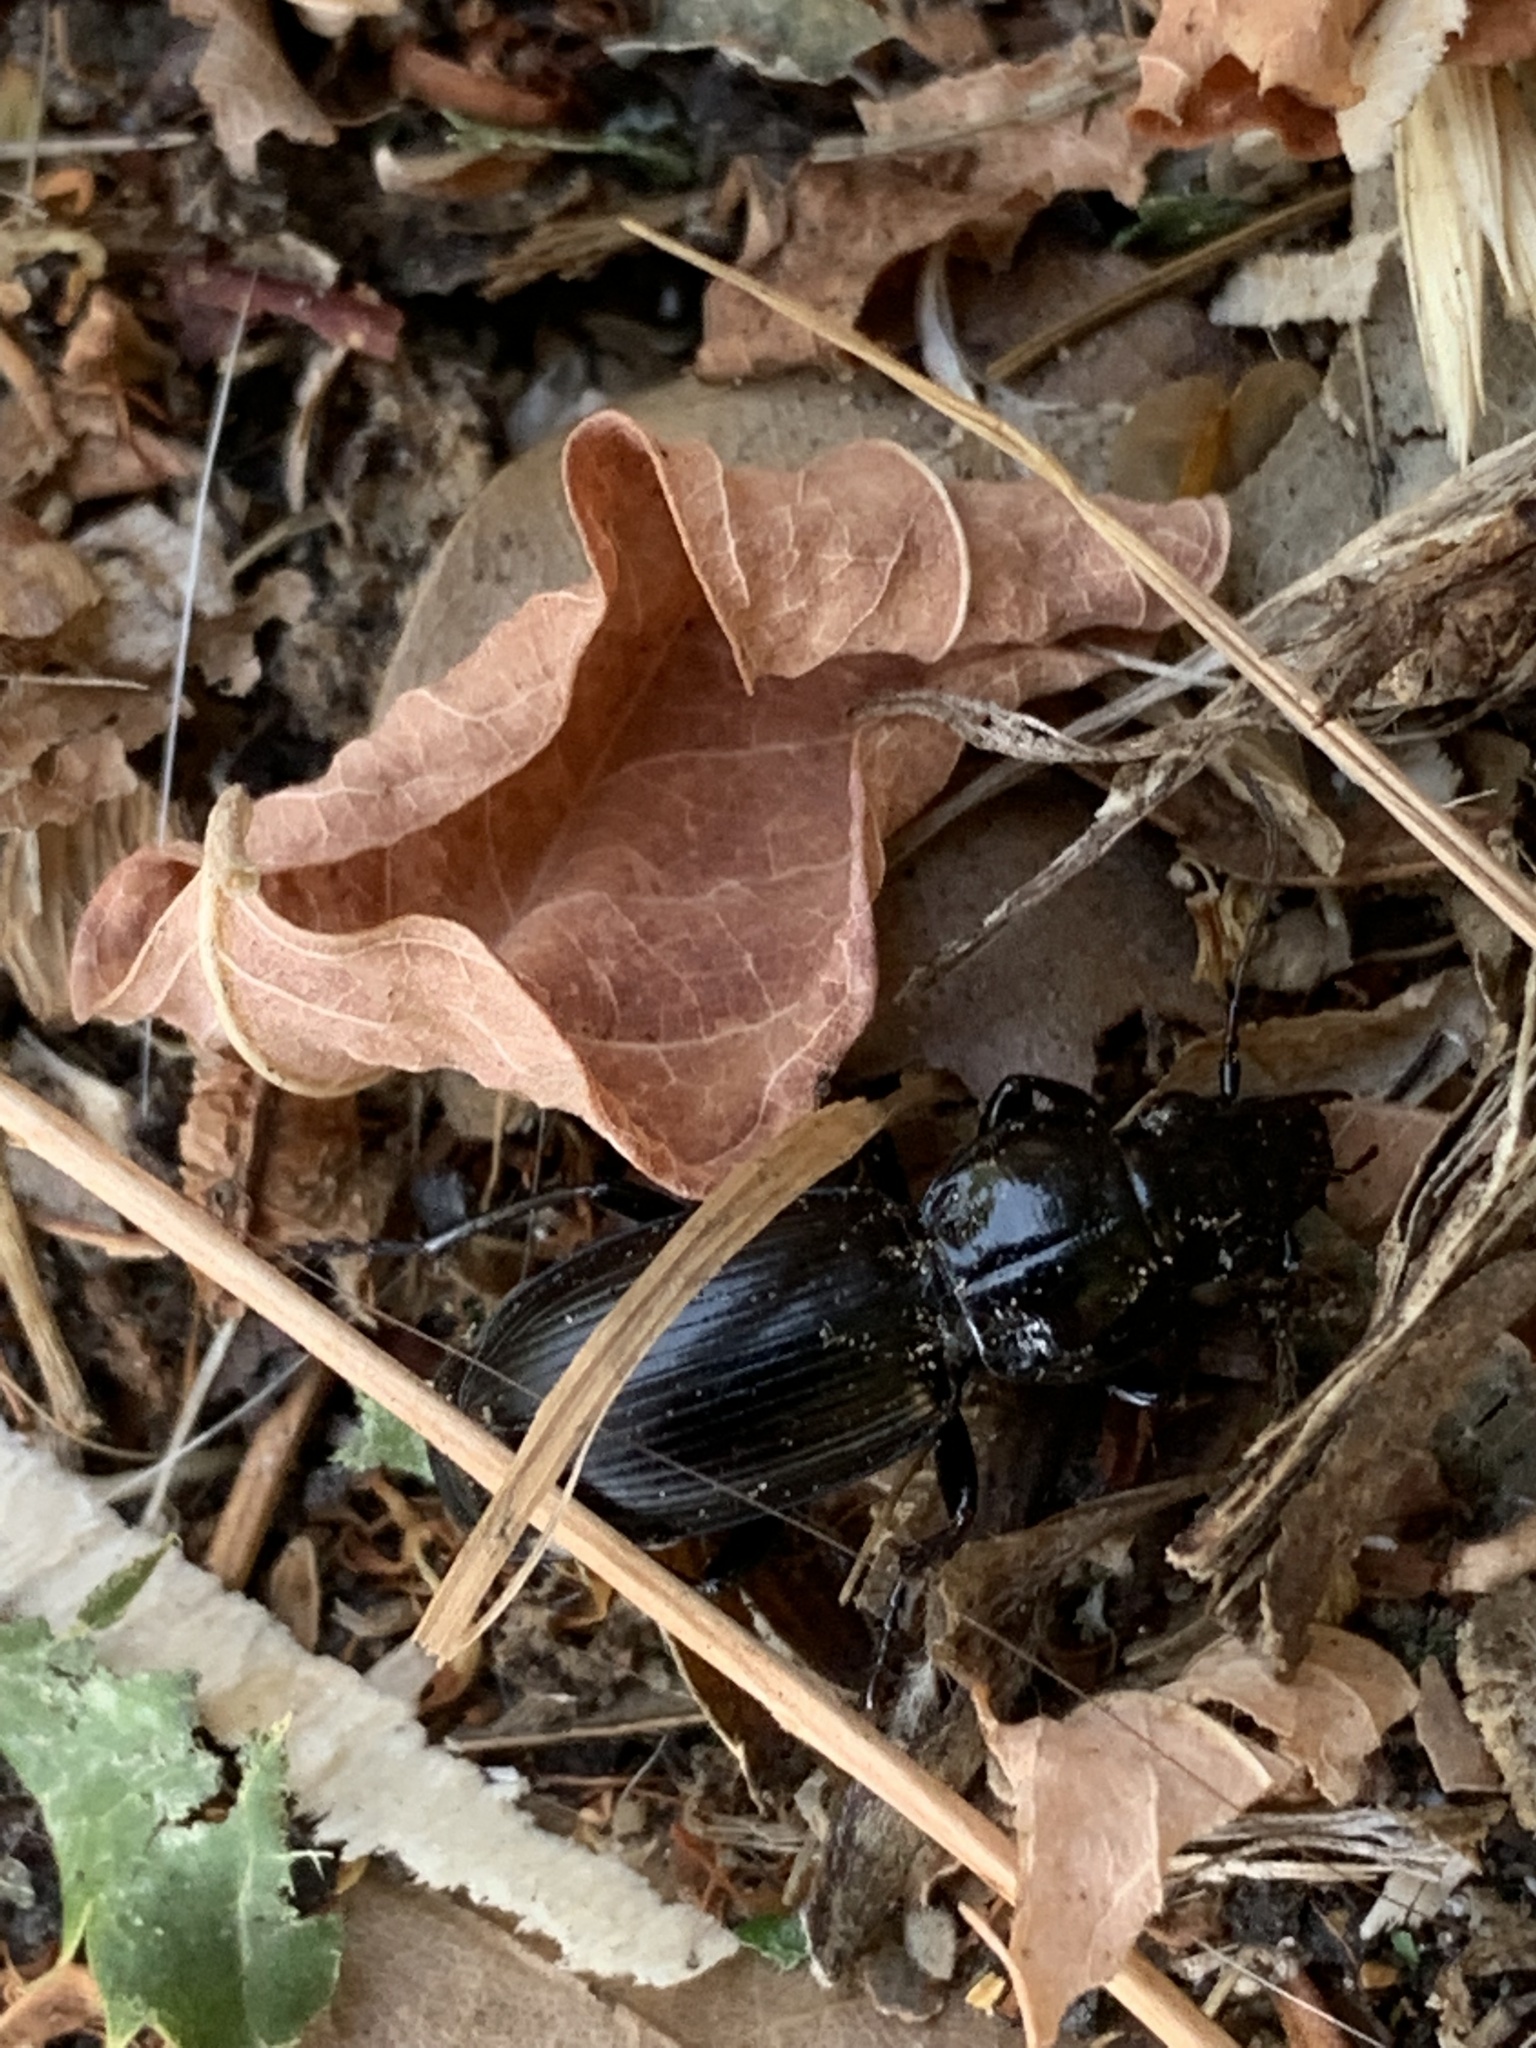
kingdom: Animalia
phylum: Arthropoda
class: Insecta
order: Coleoptera
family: Carabidae
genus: Pterostichus
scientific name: Pterostichus madidus
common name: Black clock
